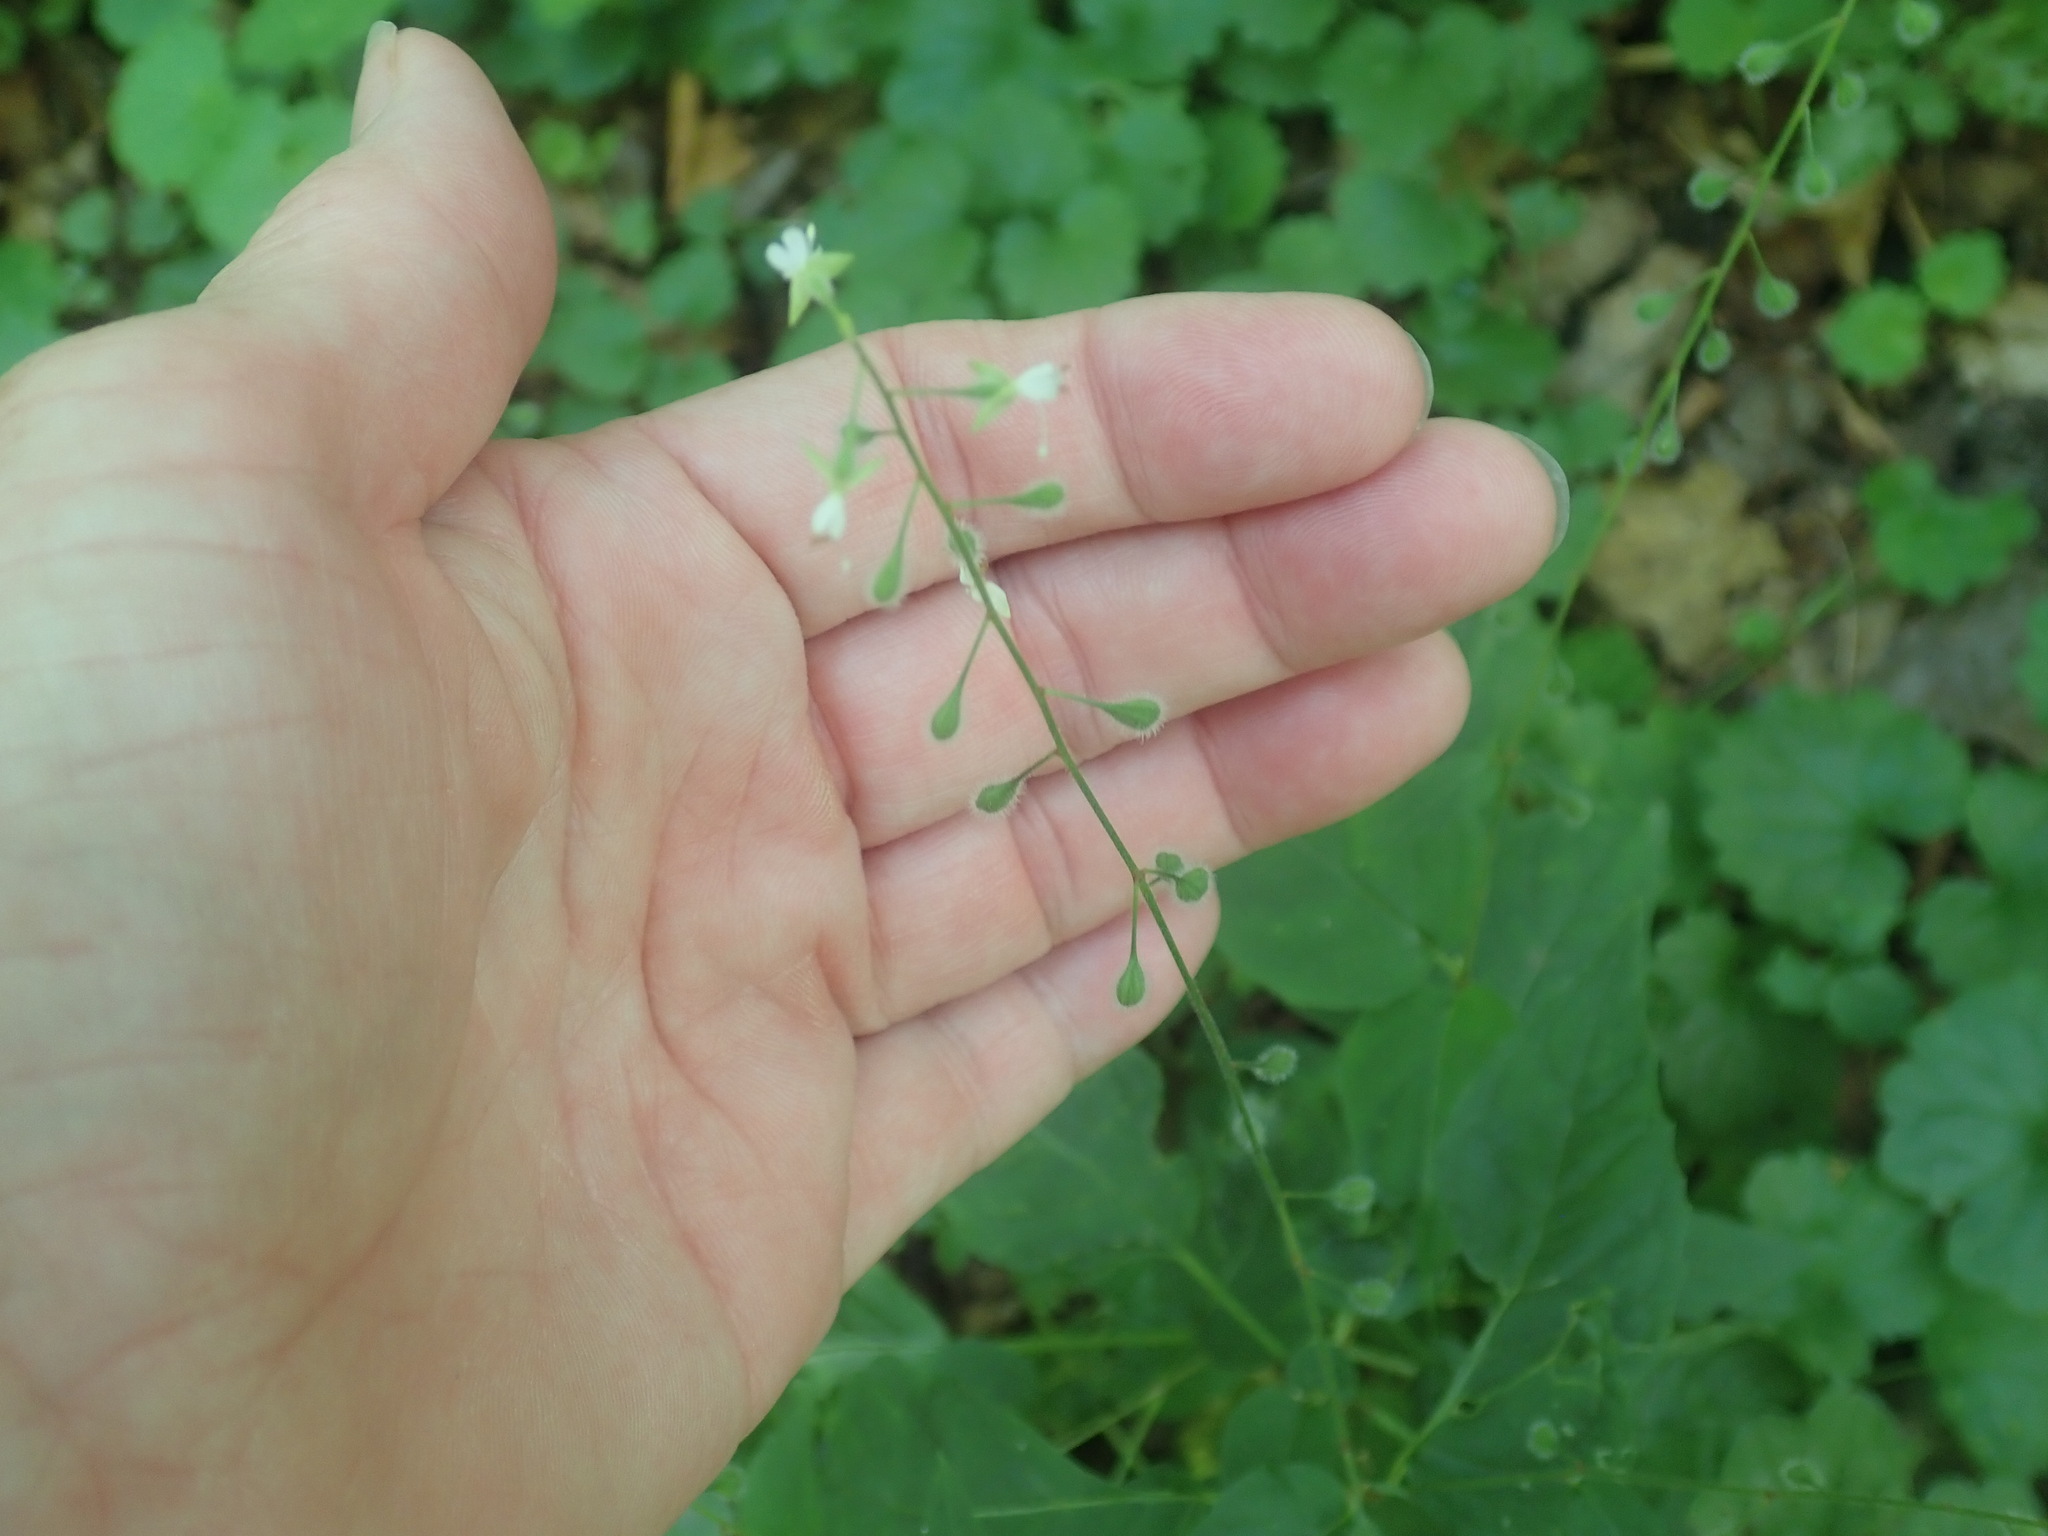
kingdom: Plantae
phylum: Tracheophyta
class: Magnoliopsida
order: Myrtales
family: Onagraceae
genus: Circaea
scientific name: Circaea canadensis
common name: Broad-leaved enchanter's nightshade
